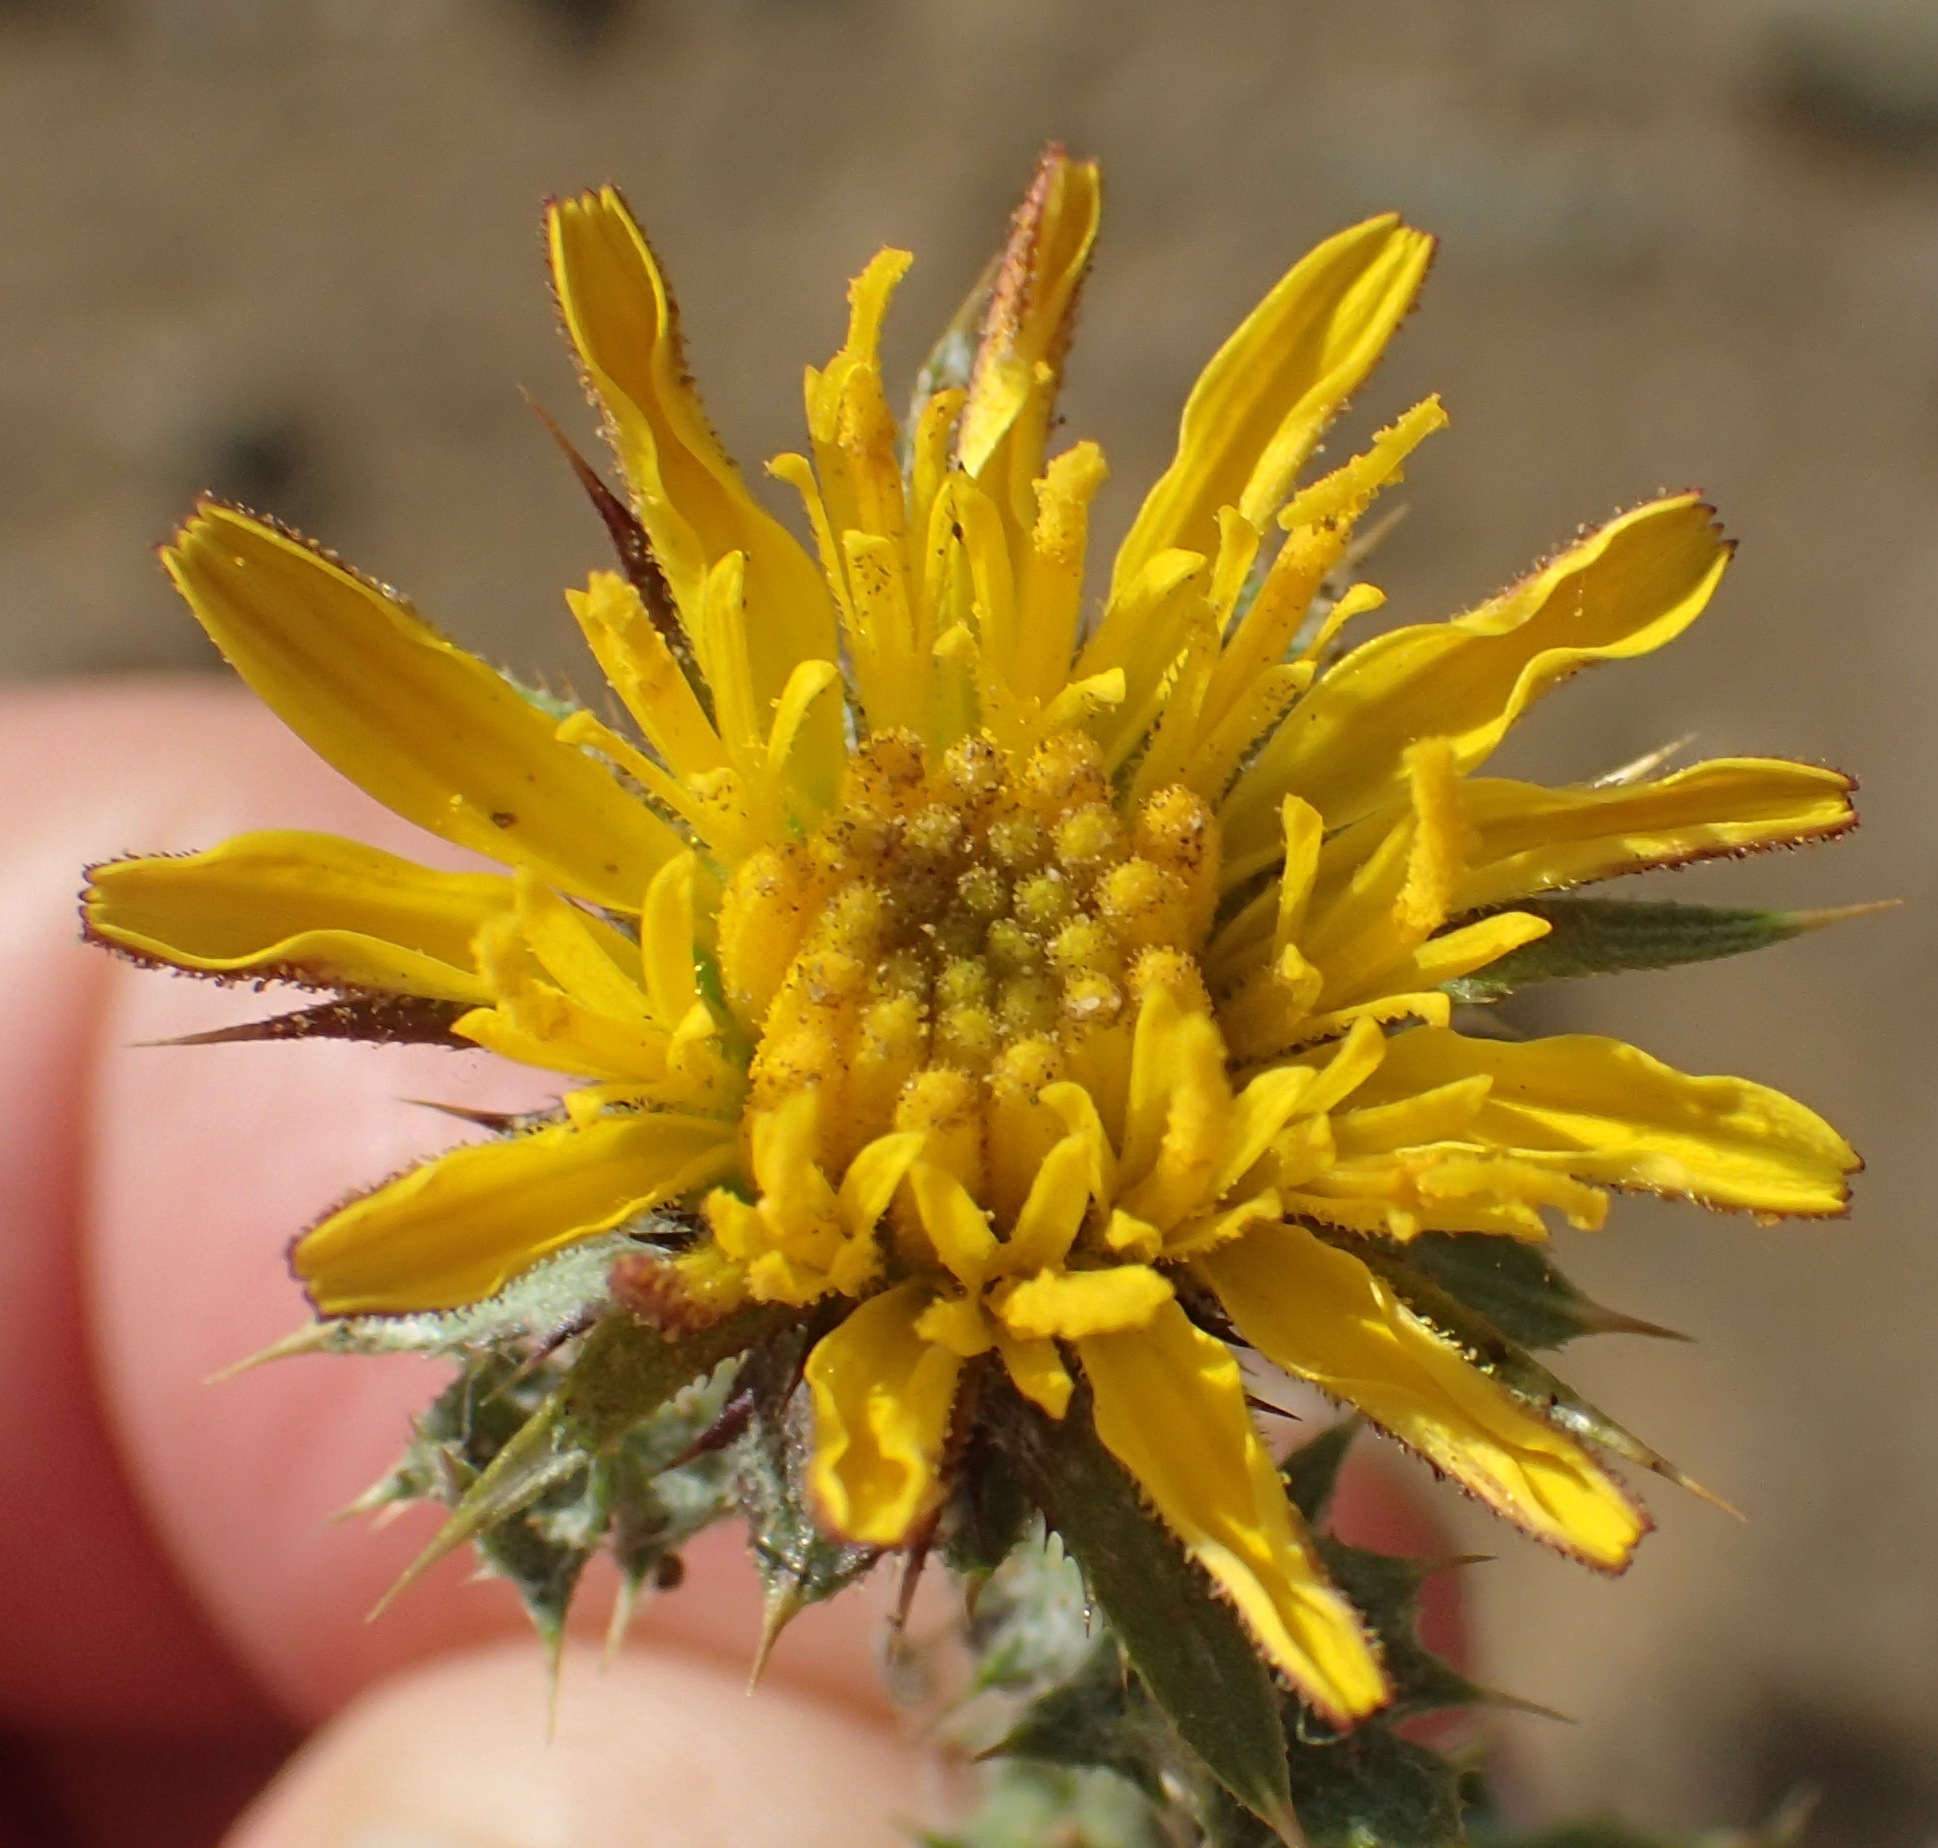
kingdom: Plantae
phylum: Tracheophyta
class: Magnoliopsida
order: Asterales
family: Asteraceae
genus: Cuspidia
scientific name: Cuspidia cernua
